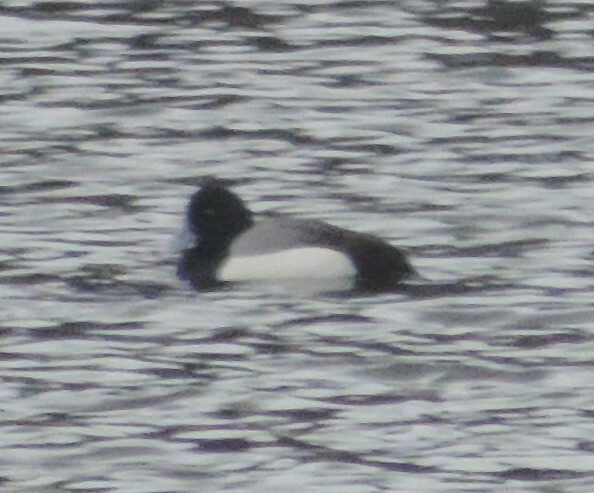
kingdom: Animalia
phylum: Chordata
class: Aves
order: Anseriformes
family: Anatidae
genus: Aythya
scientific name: Aythya marila
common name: Greater scaup
